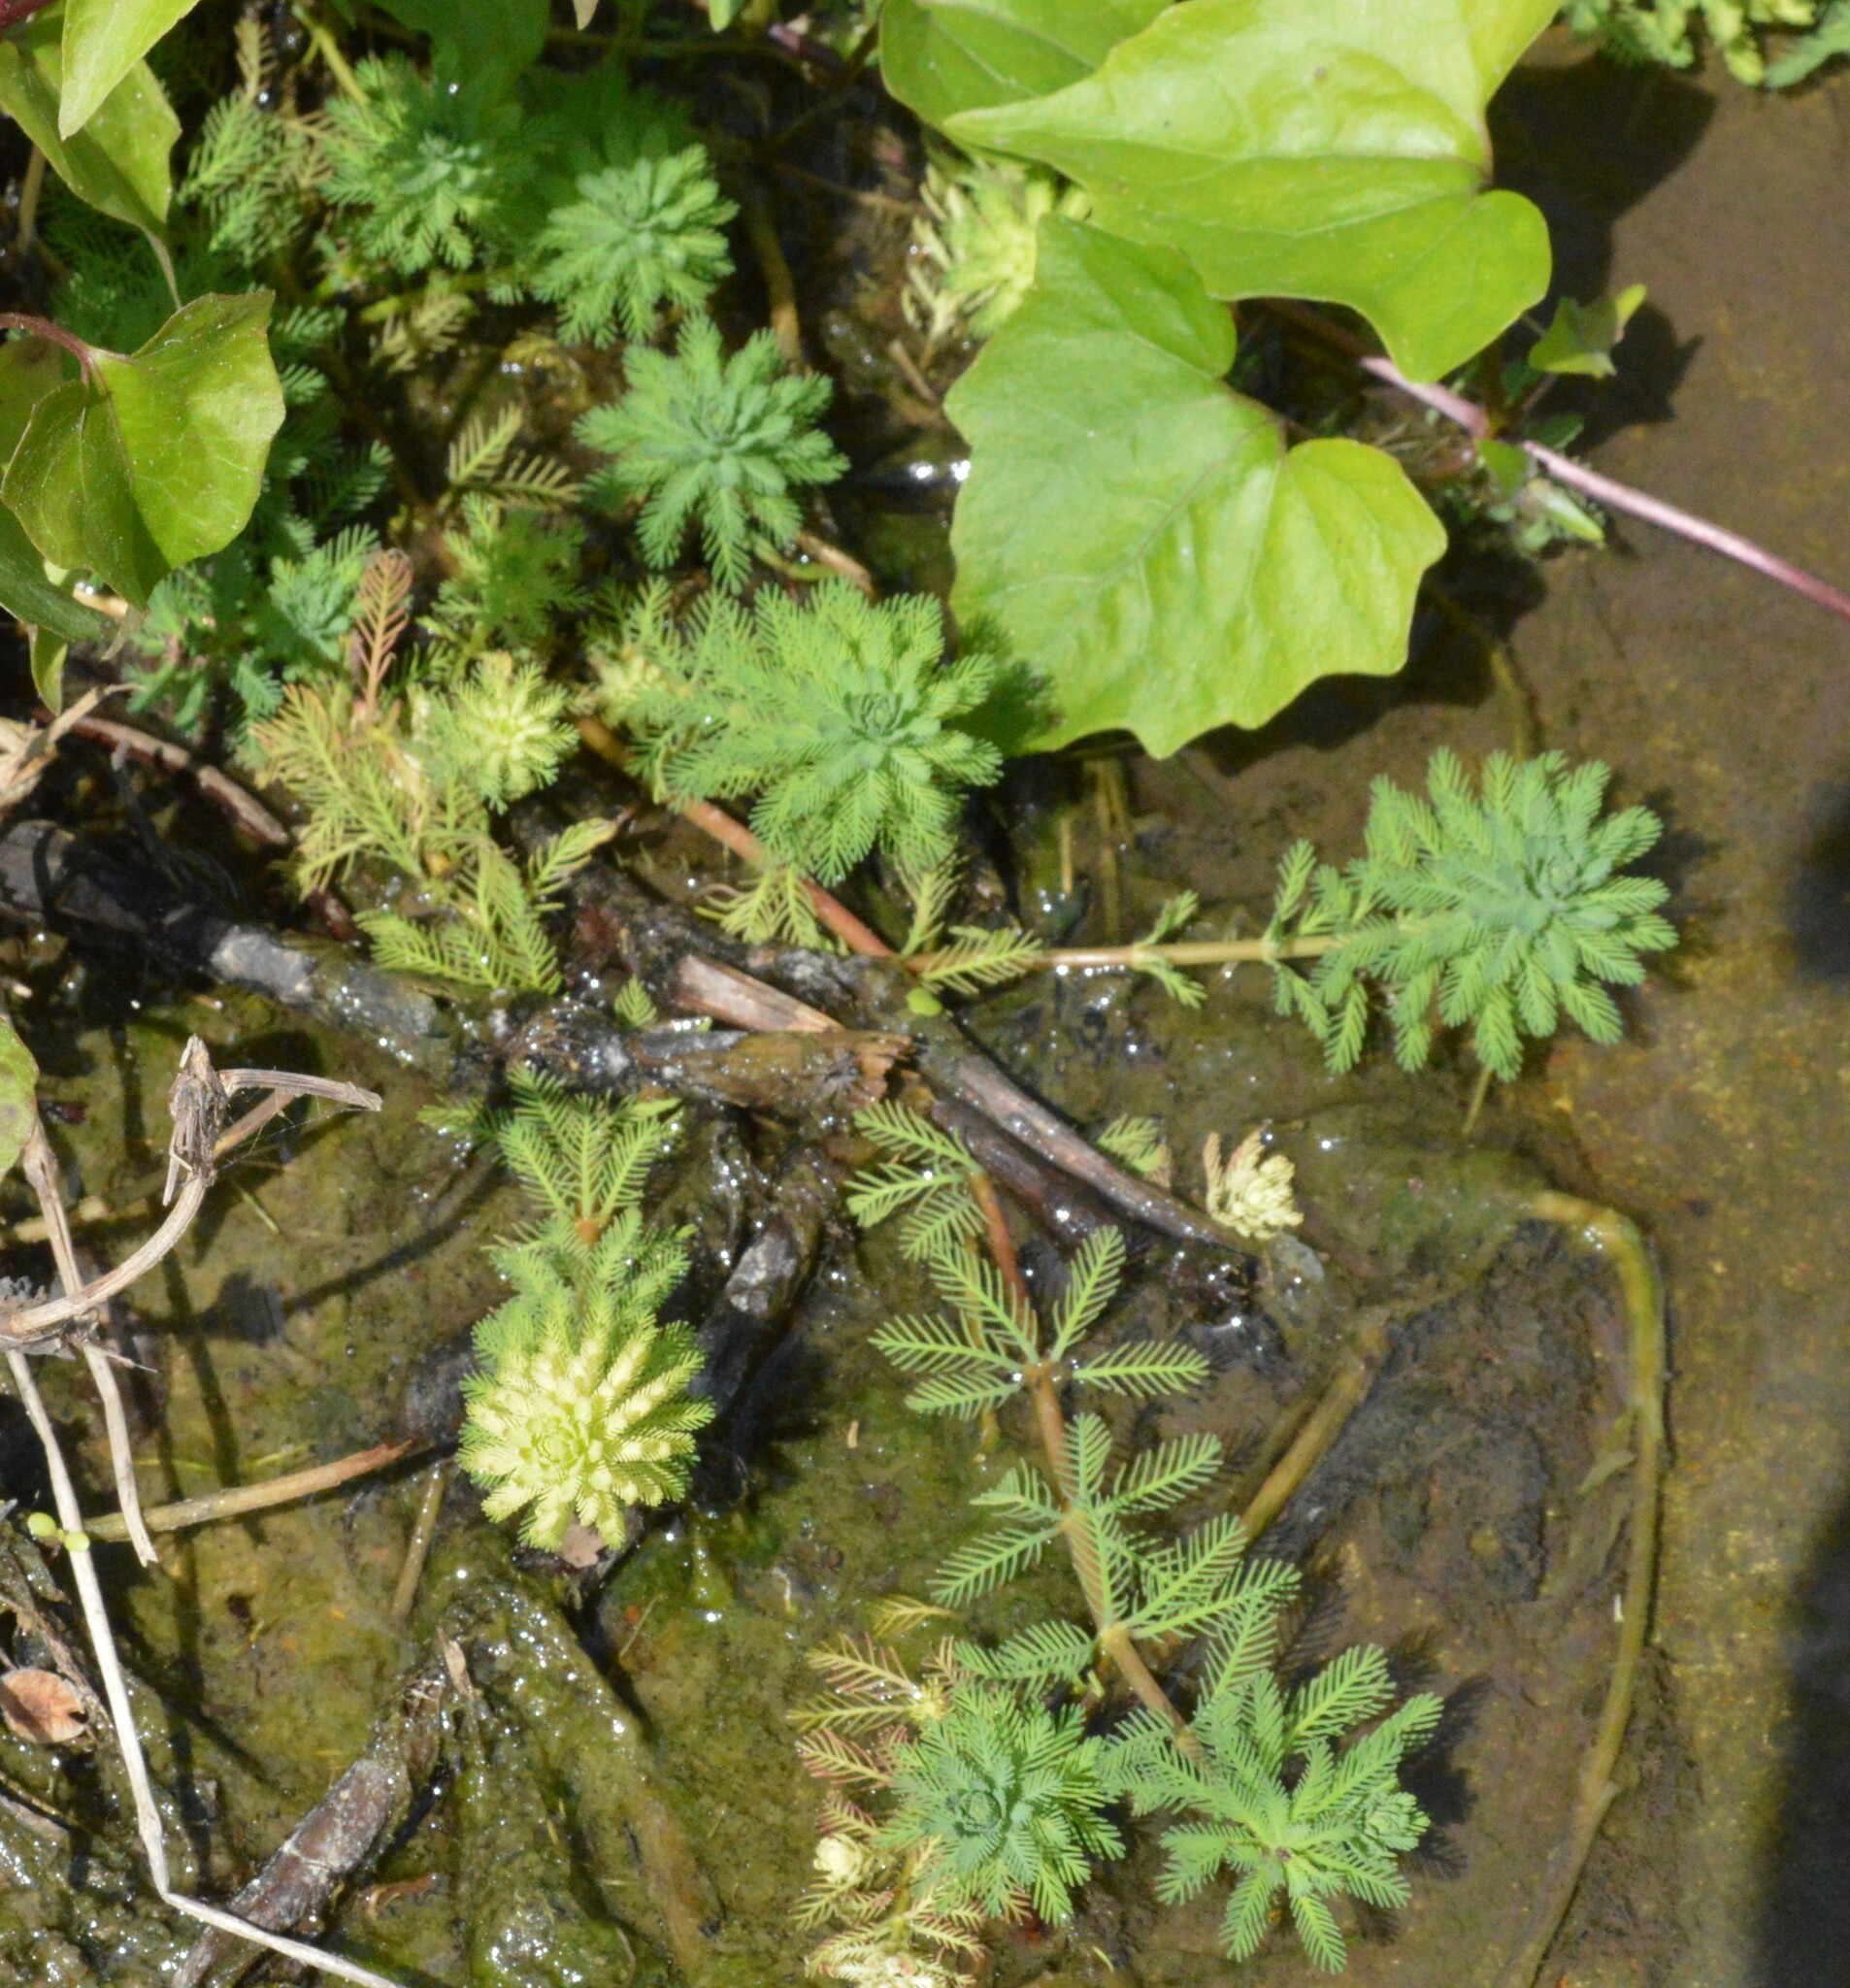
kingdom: Plantae
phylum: Tracheophyta
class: Magnoliopsida
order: Saxifragales
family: Haloragaceae
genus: Myriophyllum
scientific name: Myriophyllum aquaticum
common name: Parrot's feather
